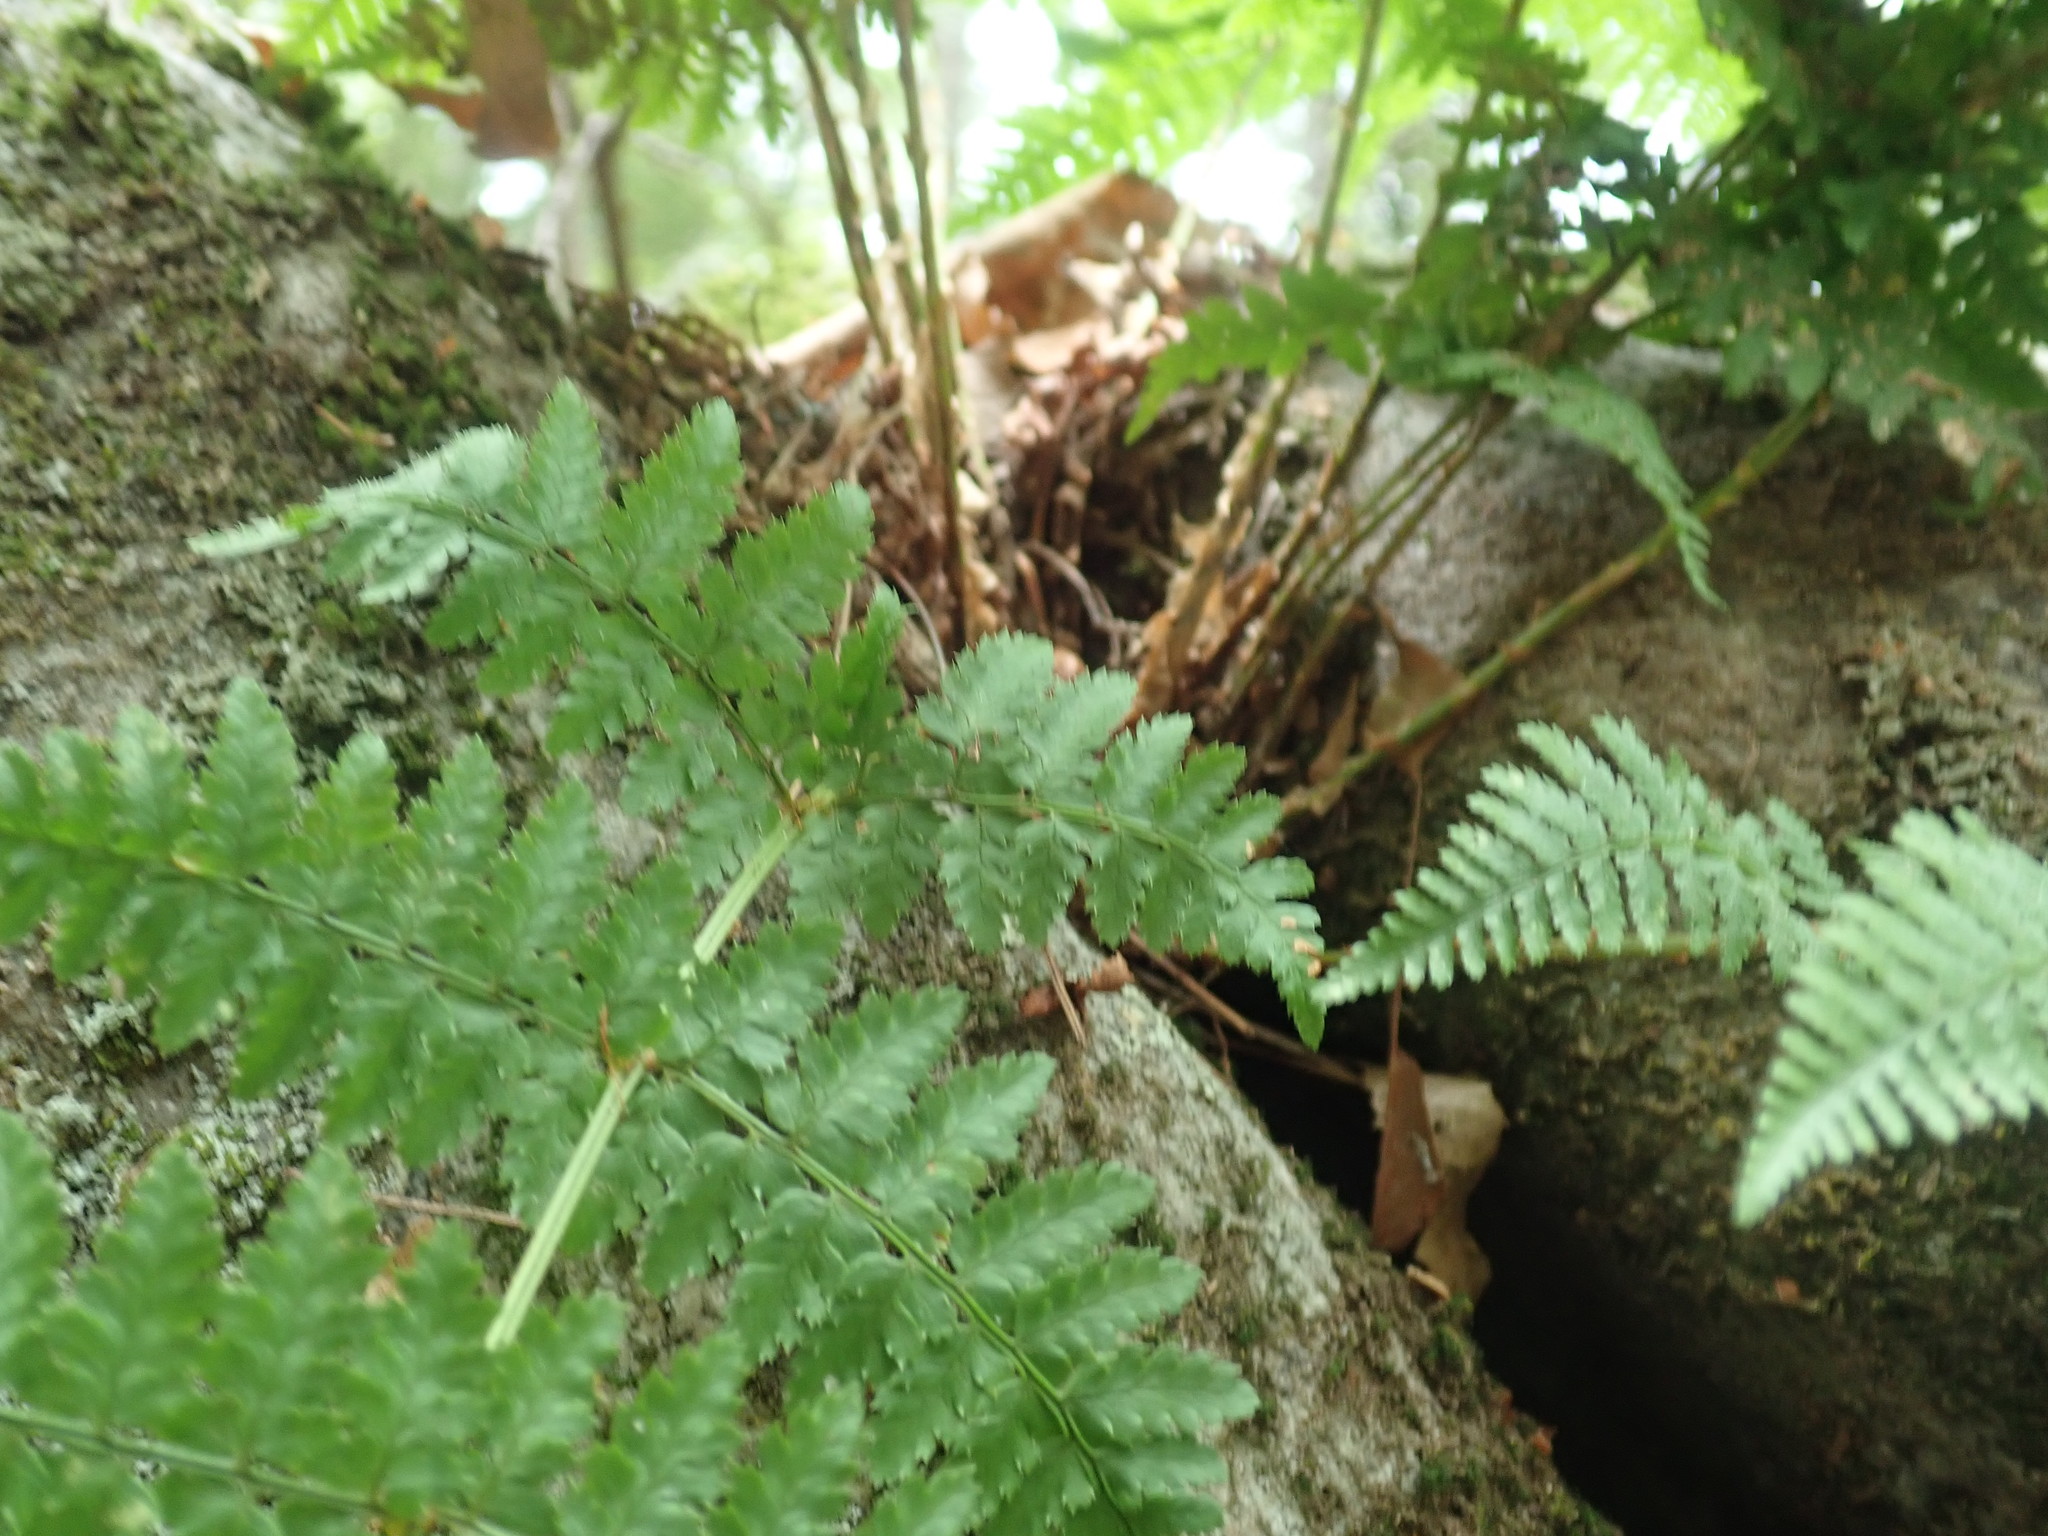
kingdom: Plantae
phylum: Tracheophyta
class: Polypodiopsida
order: Polypodiales
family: Dryopteridaceae
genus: Dryopteris
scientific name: Dryopteris intermedia
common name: Evergreen wood fern
